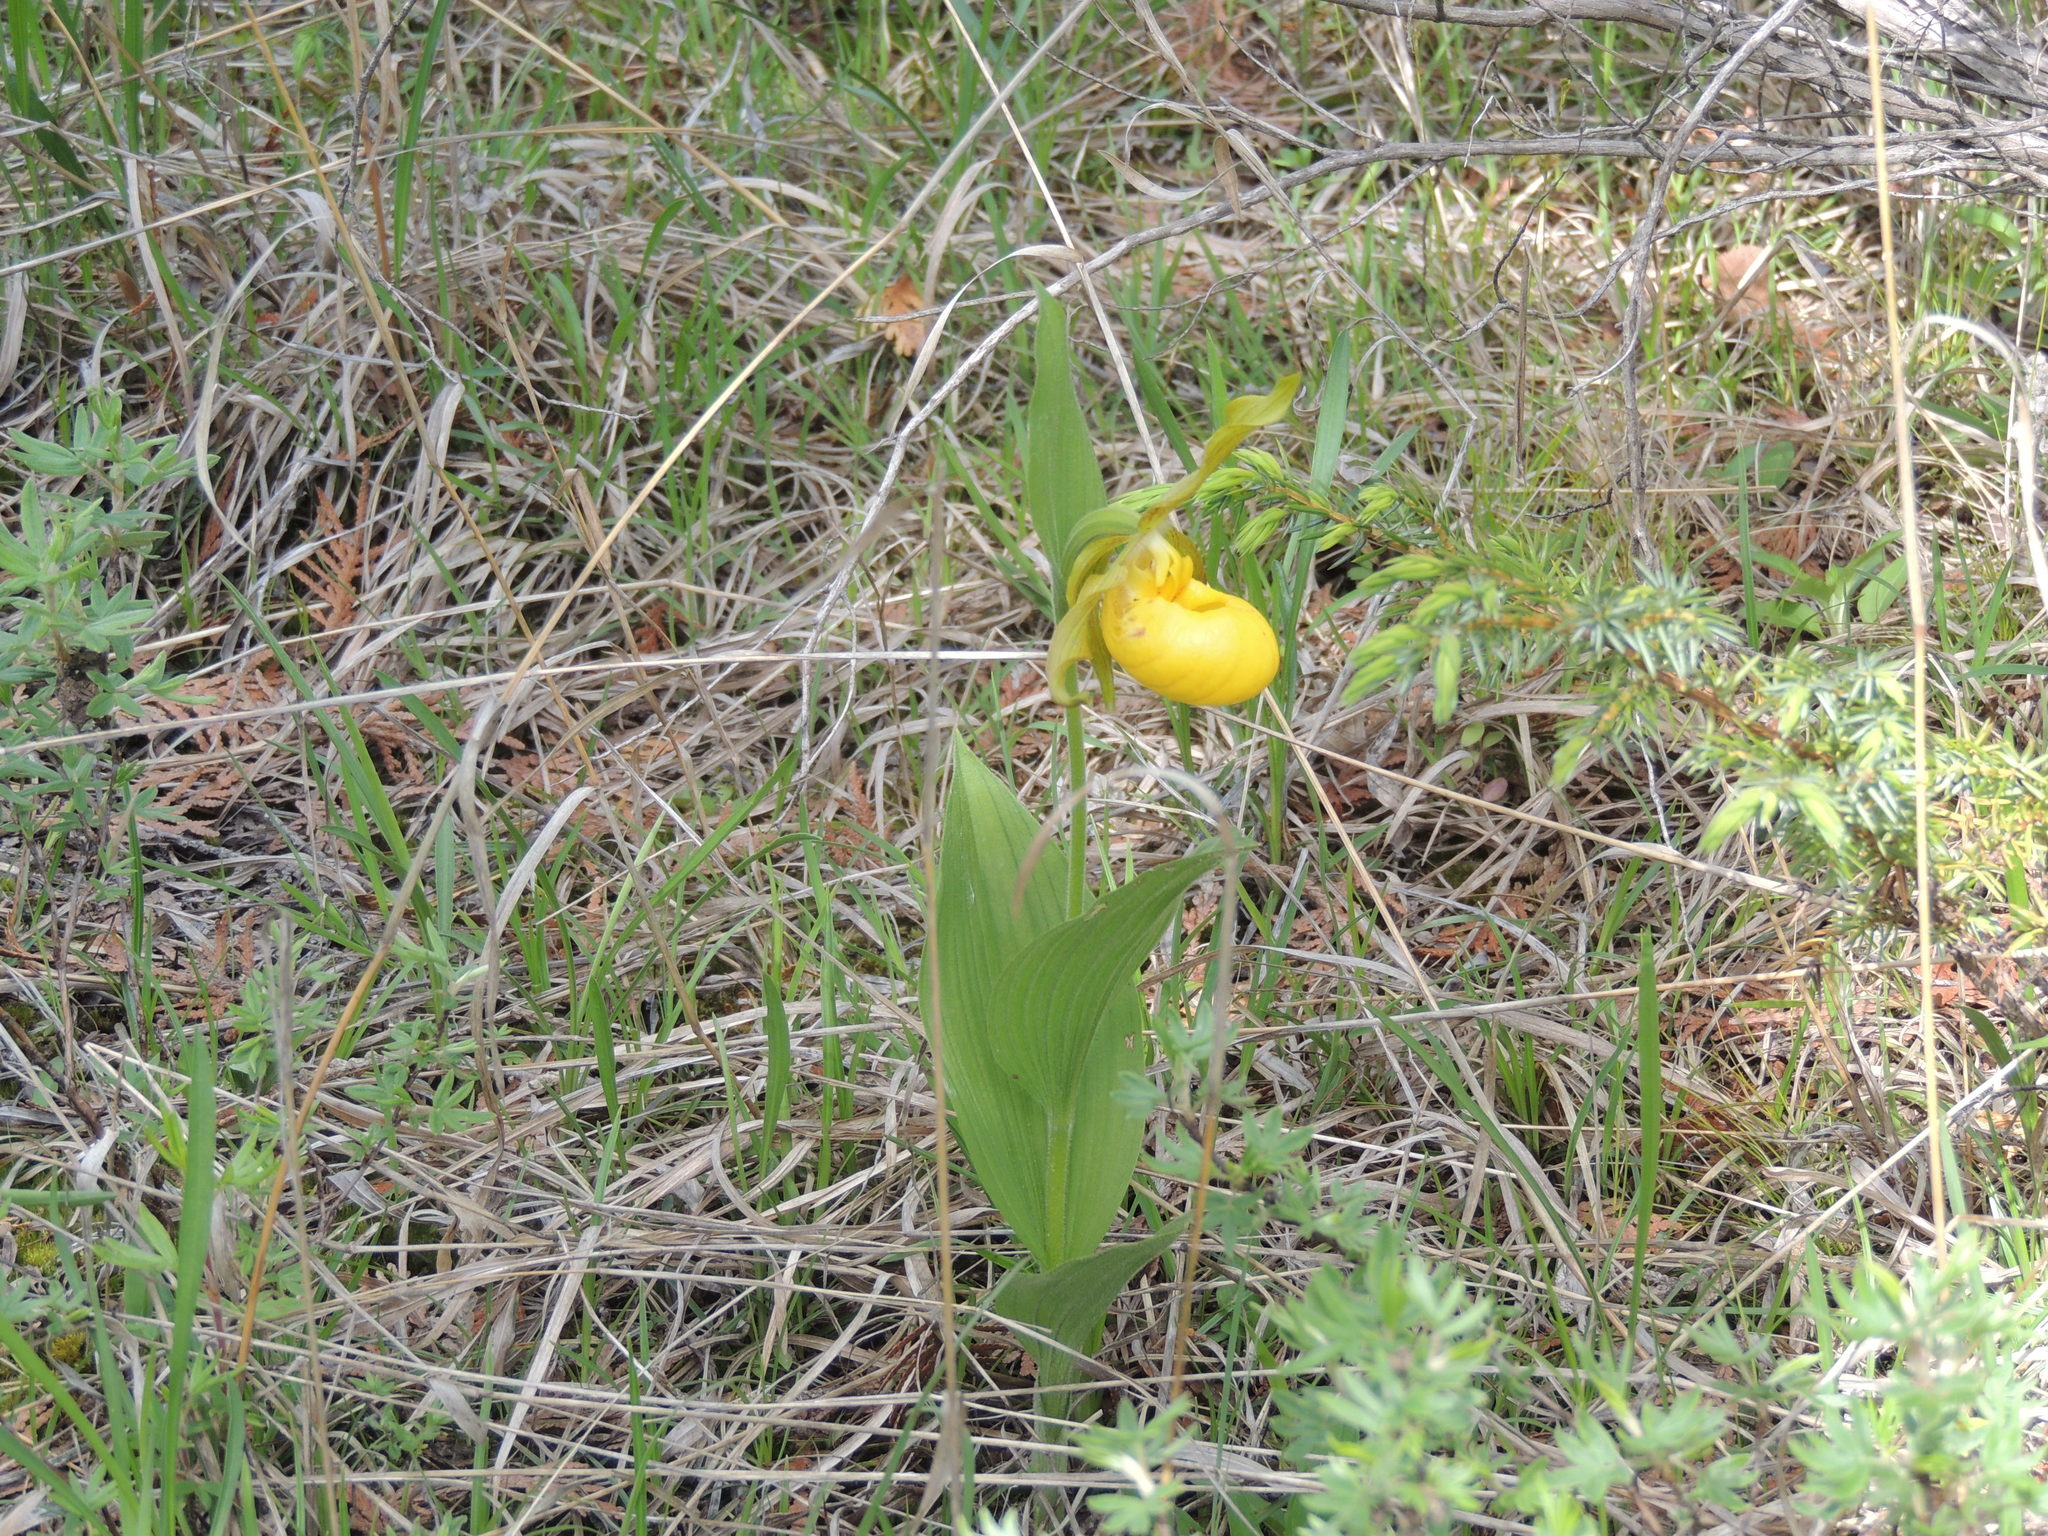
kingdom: Plantae
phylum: Tracheophyta
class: Liliopsida
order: Asparagales
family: Orchidaceae
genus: Cypripedium
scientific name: Cypripedium parviflorum
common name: American yellow lady's-slipper
